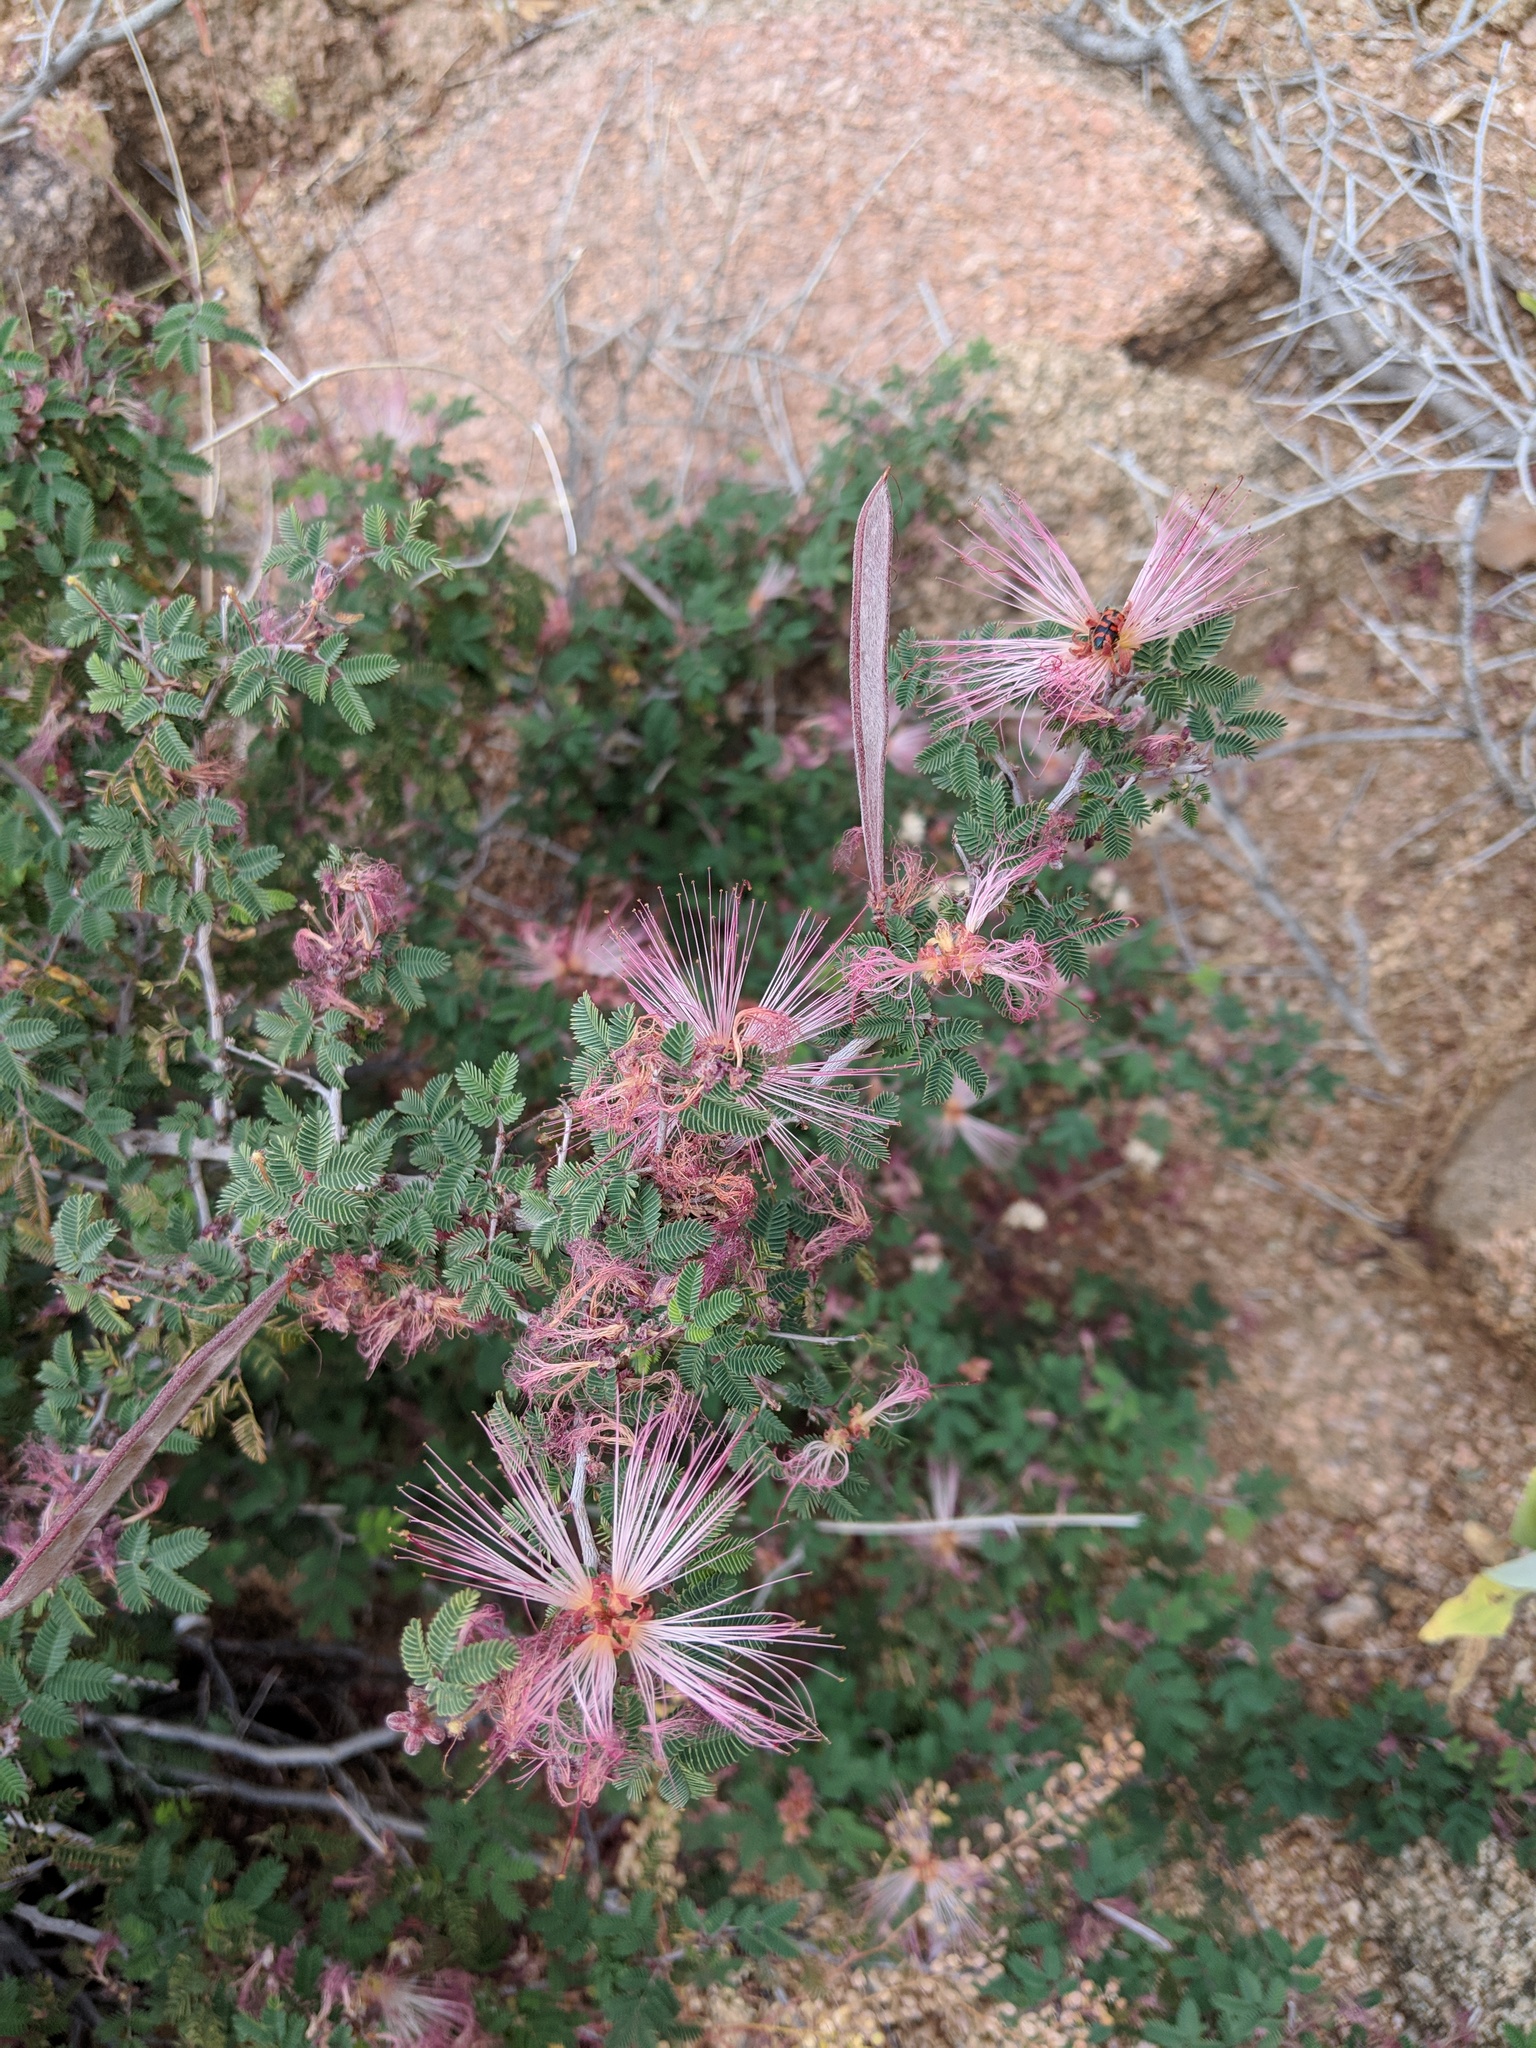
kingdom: Plantae
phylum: Tracheophyta
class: Magnoliopsida
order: Fabales
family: Fabaceae
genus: Calliandra
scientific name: Calliandra eriophylla
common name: Fairy-duster
